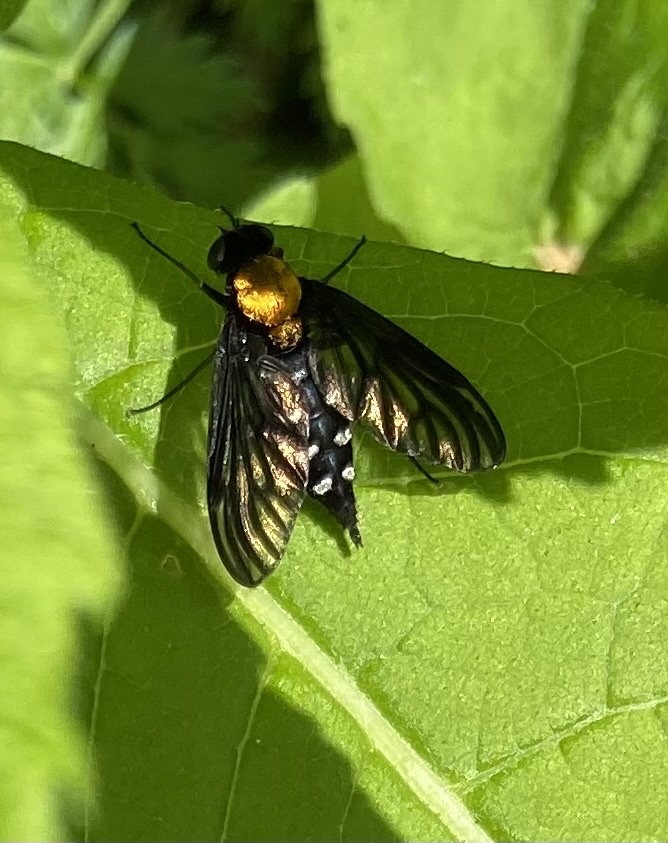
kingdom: Animalia
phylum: Arthropoda
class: Insecta
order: Diptera
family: Rhagionidae
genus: Chrysopilus
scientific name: Chrysopilus thoracicus
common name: Golden-backed snipe fly
